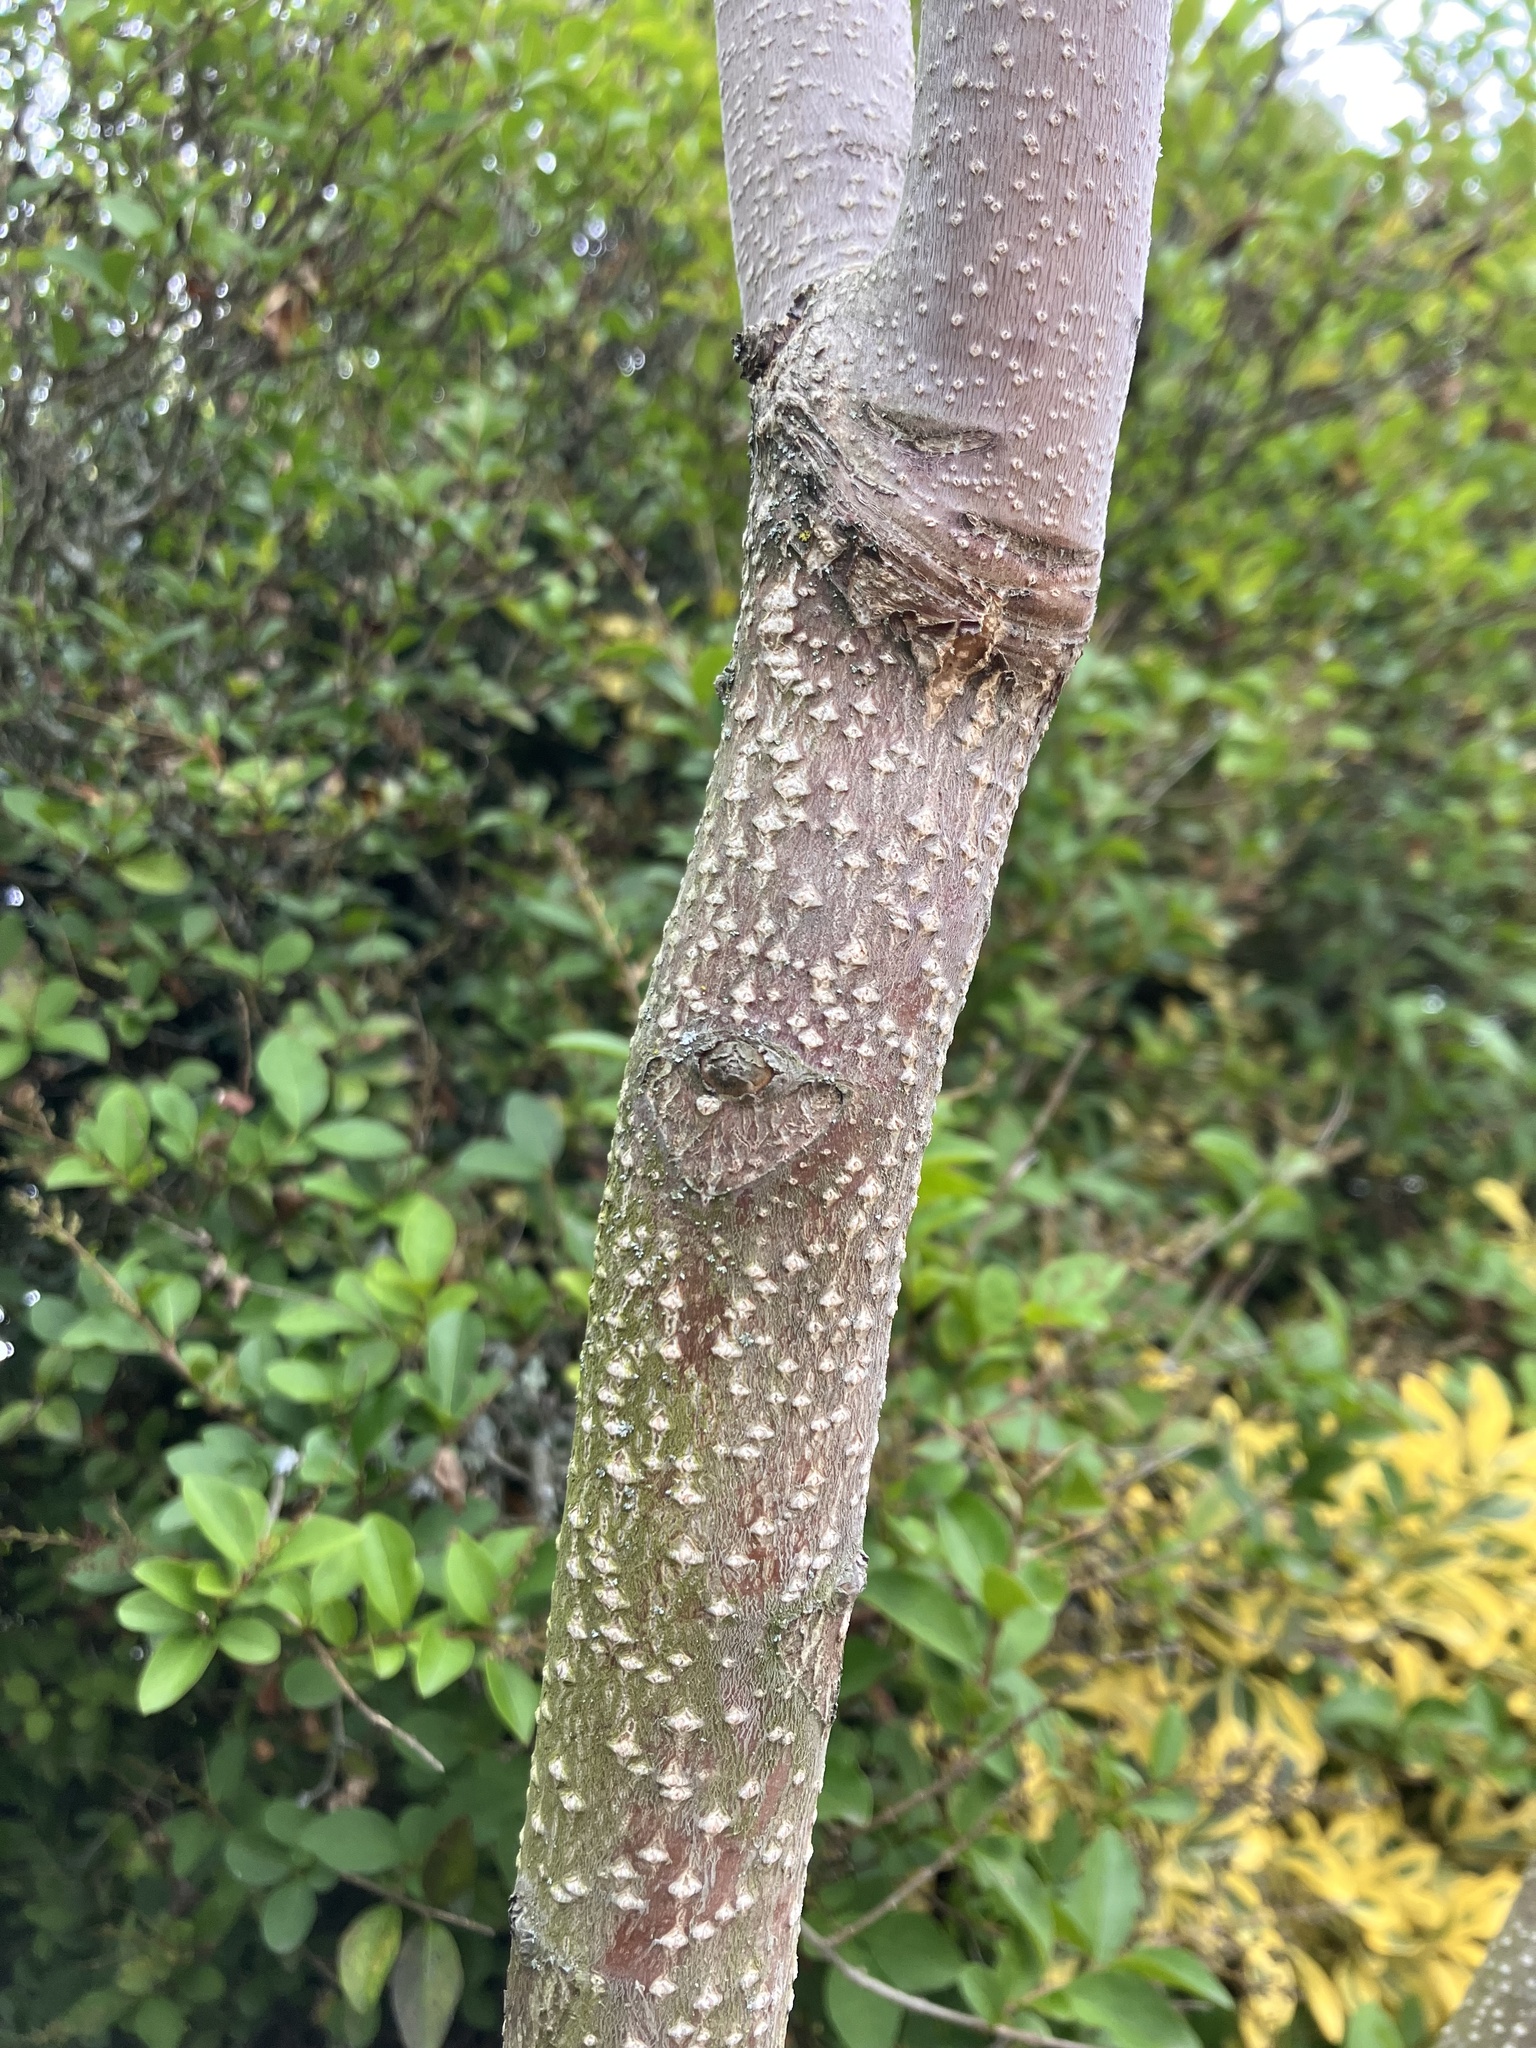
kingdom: Plantae
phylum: Tracheophyta
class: Magnoliopsida
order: Sapindales
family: Simaroubaceae
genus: Ailanthus
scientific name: Ailanthus altissima
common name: Tree-of-heaven
